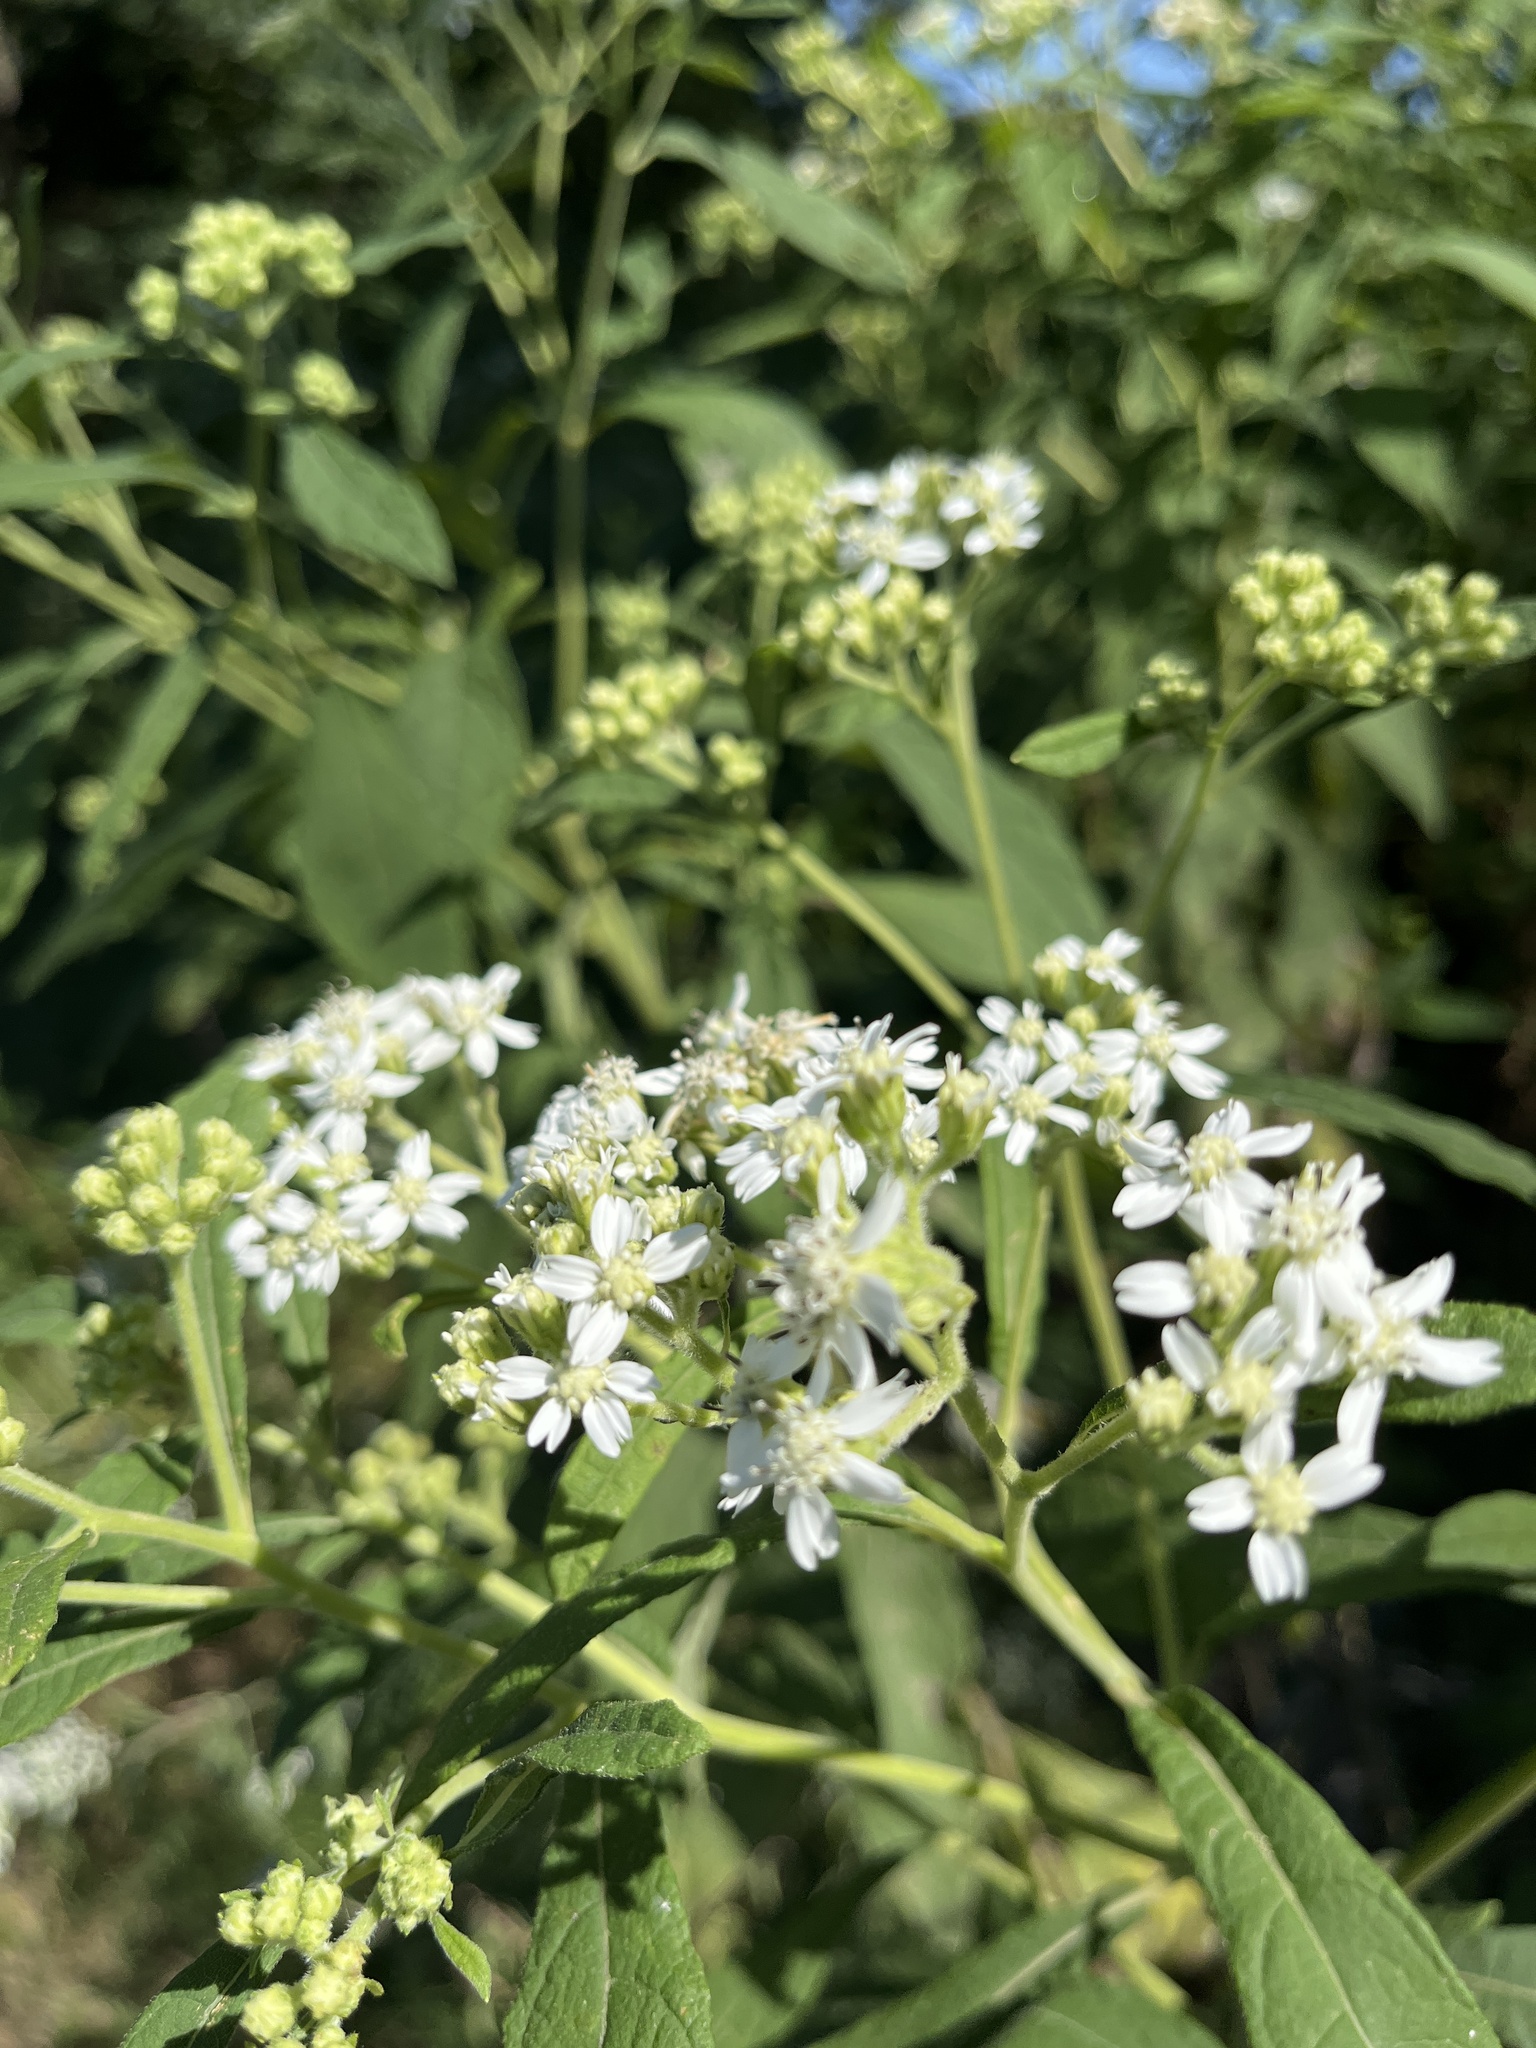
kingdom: Plantae
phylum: Tracheophyta
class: Magnoliopsida
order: Asterales
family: Asteraceae
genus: Verbesina
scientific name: Verbesina virginica
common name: Frostweed
